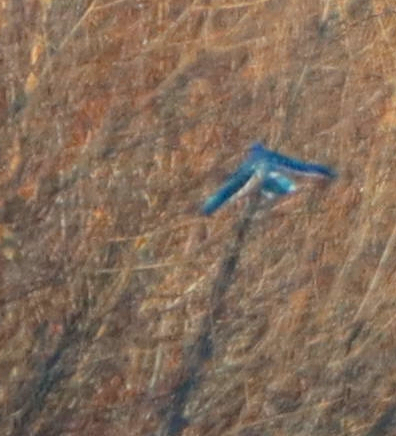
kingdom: Animalia
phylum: Chordata
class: Aves
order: Passeriformes
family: Corvidae
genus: Cyanocitta
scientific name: Cyanocitta cristata
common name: Blue jay
